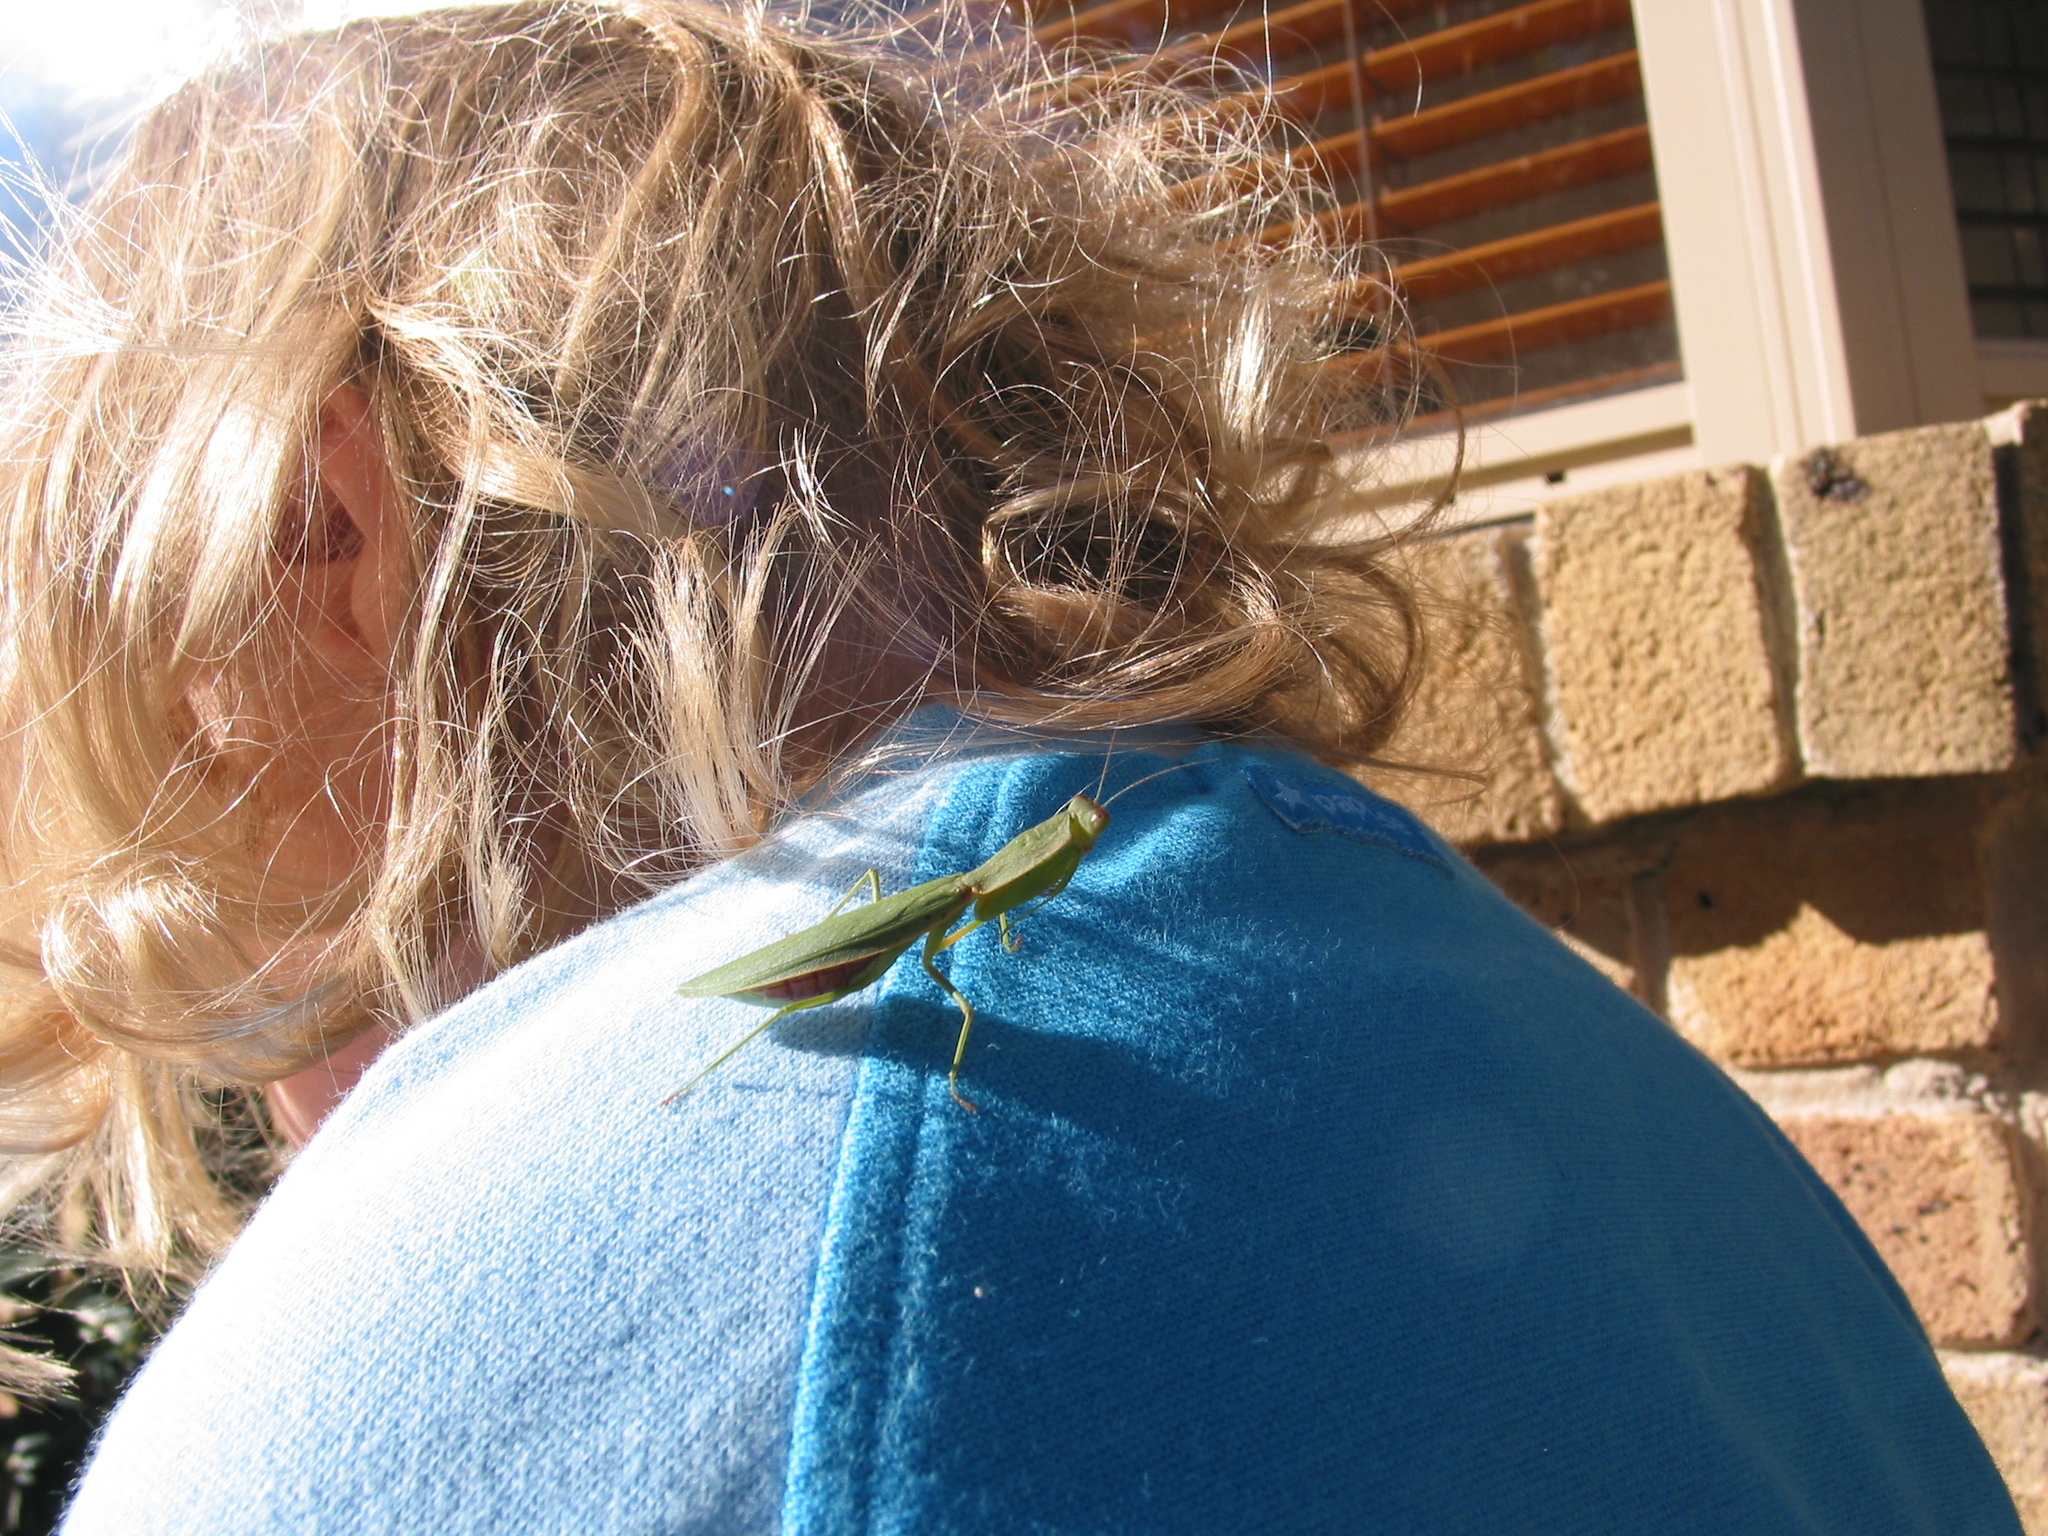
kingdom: Animalia
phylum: Arthropoda
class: Insecta
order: Mantodea
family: Mantidae
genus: Orthodera
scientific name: Orthodera ministralis
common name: Mantis
